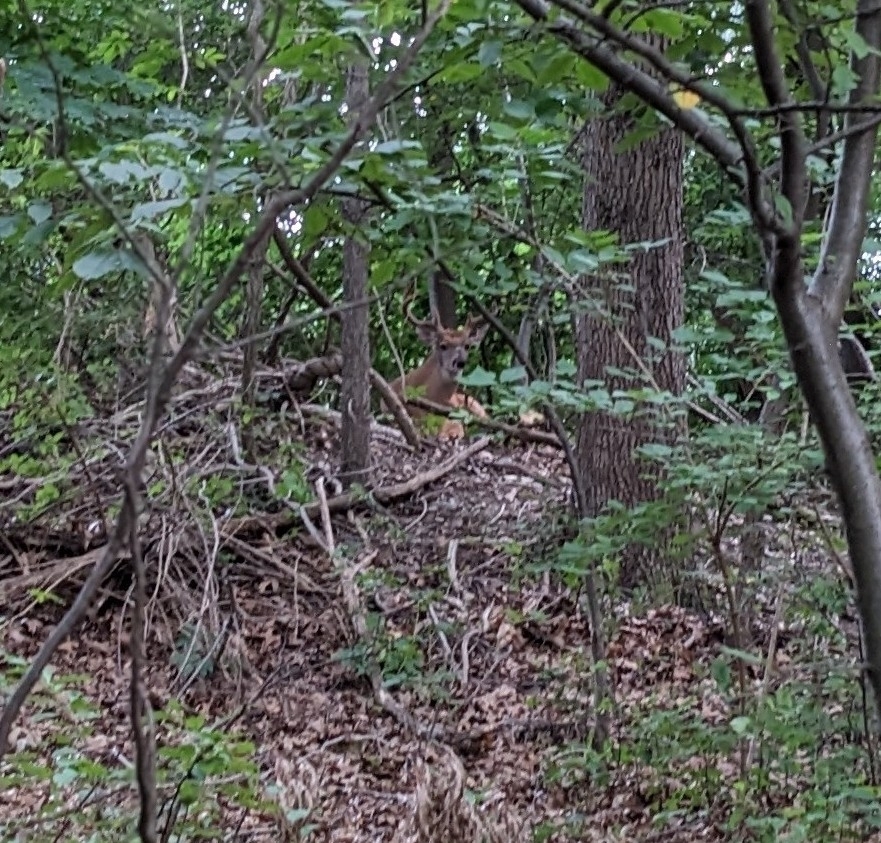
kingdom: Animalia
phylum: Chordata
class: Mammalia
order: Artiodactyla
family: Cervidae
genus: Odocoileus
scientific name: Odocoileus virginianus
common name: White-tailed deer
